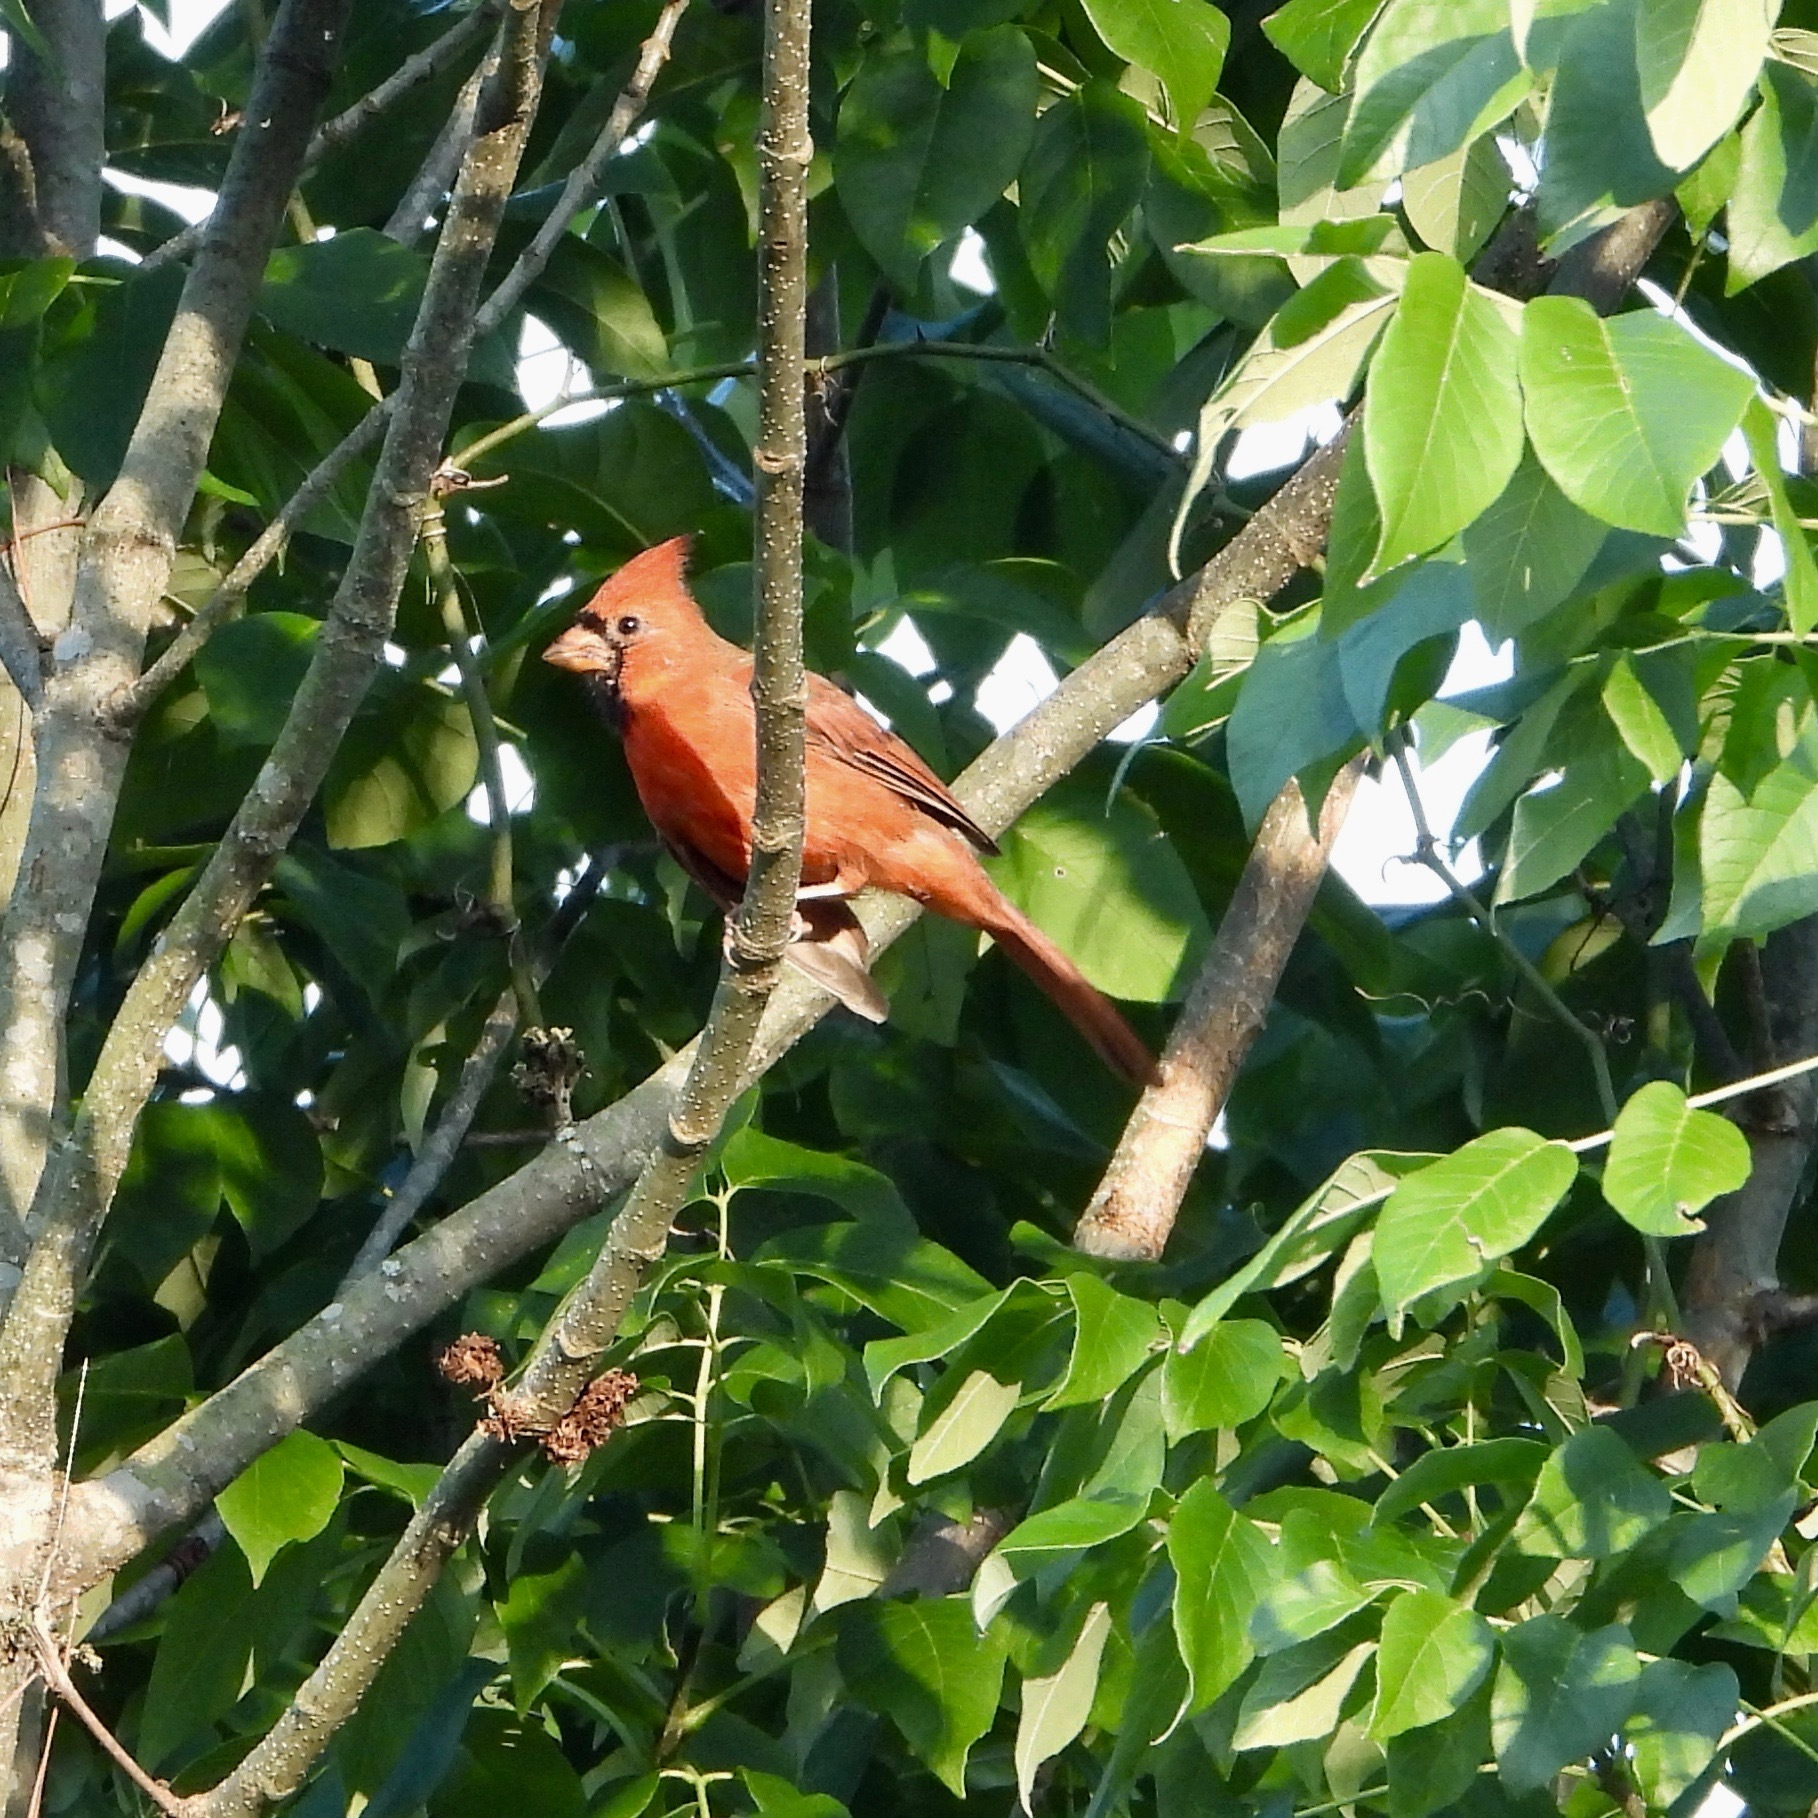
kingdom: Animalia
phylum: Chordata
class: Aves
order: Passeriformes
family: Cardinalidae
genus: Cardinalis
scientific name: Cardinalis cardinalis
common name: Northern cardinal
